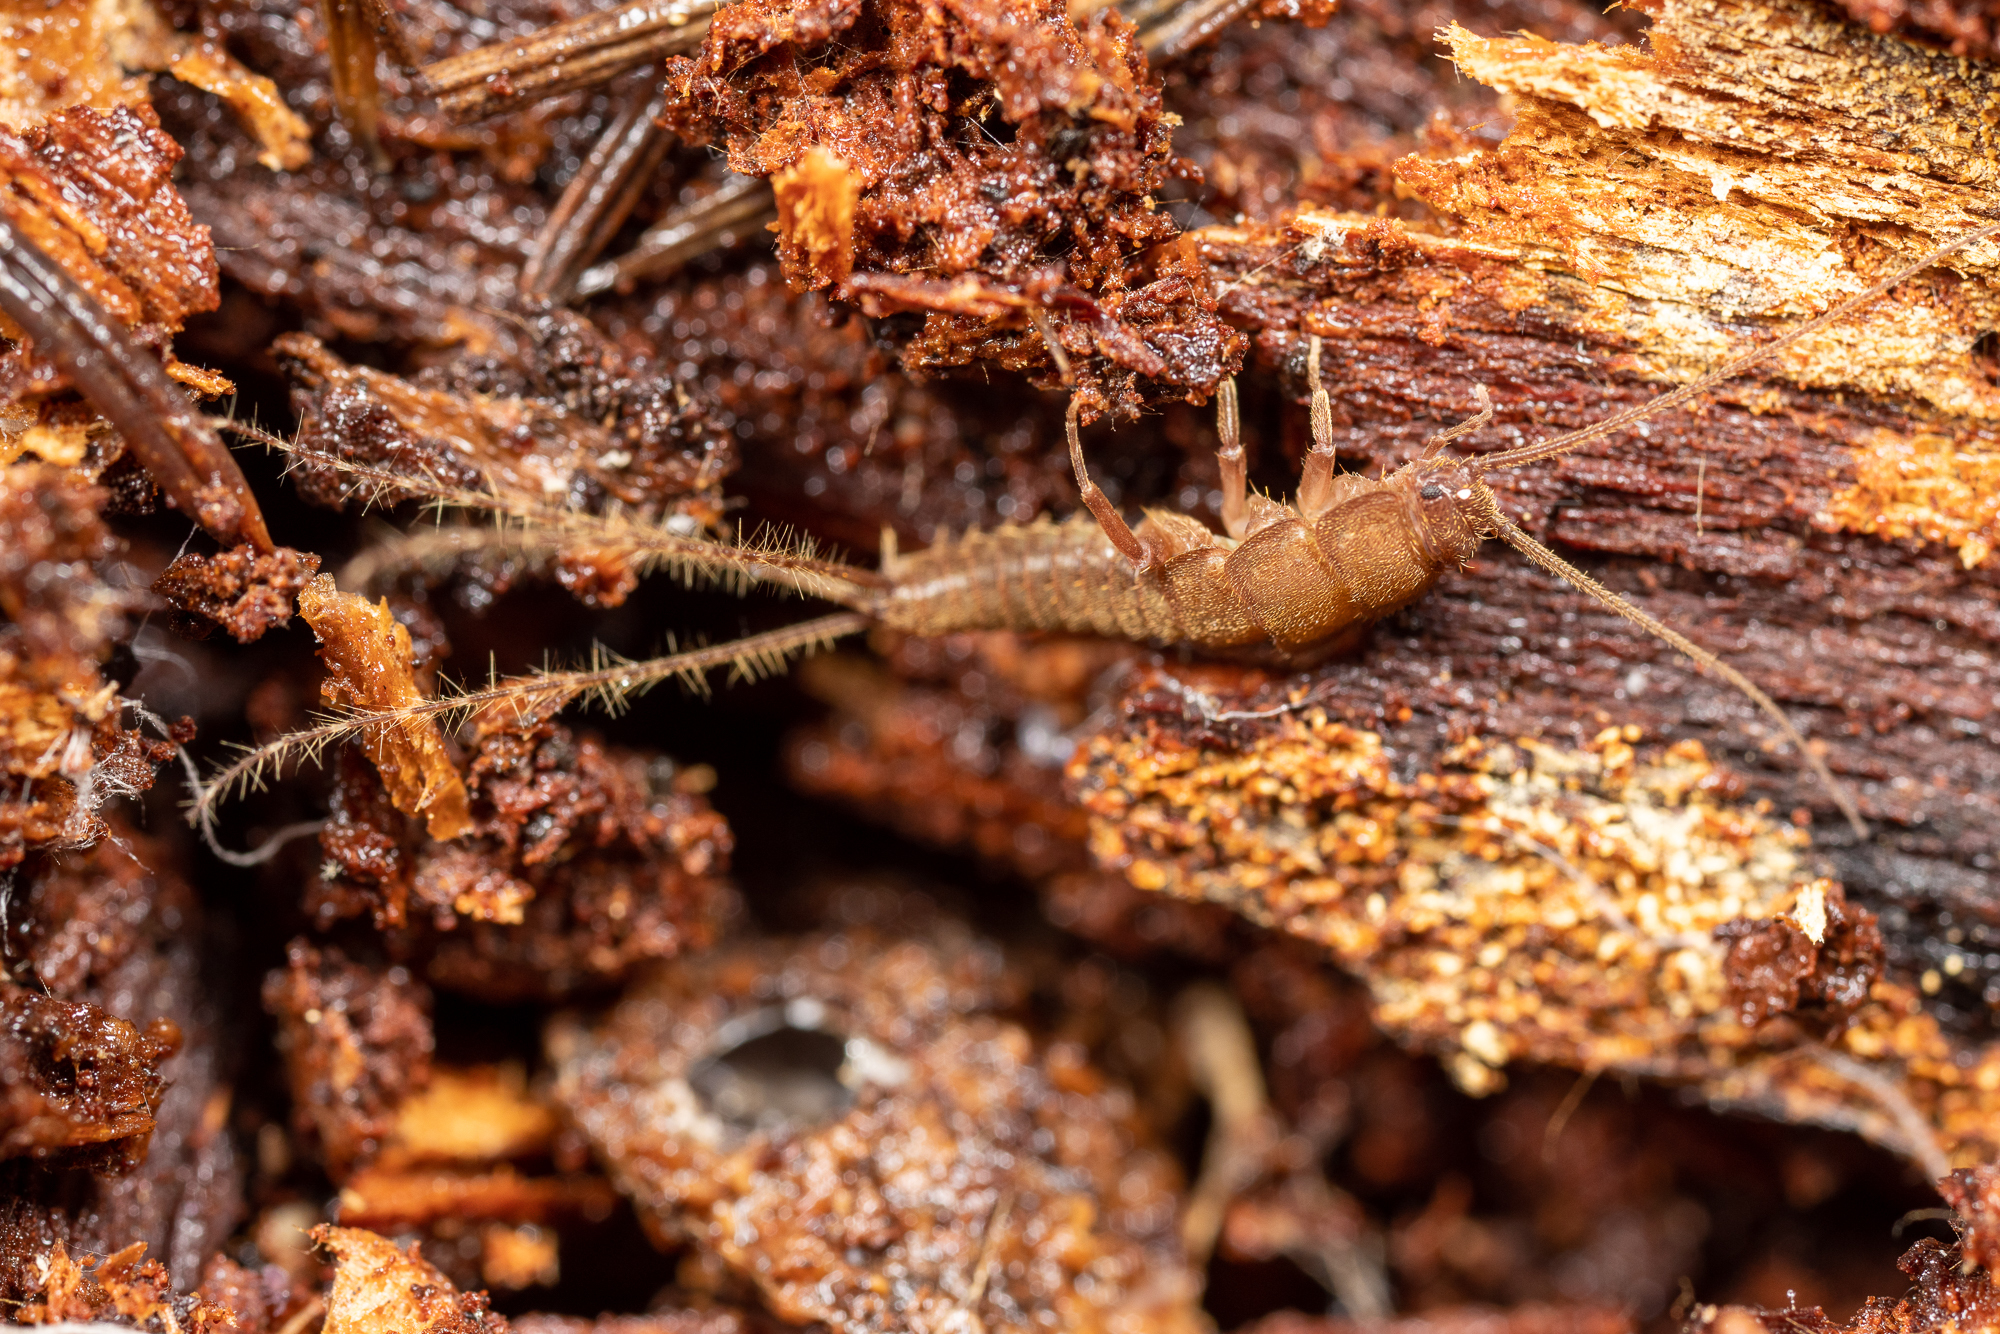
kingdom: Animalia
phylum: Arthropoda
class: Insecta
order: Zygentoma
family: Lepidotrichidae
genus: Tricholepidion
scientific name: Tricholepidion gertschi
